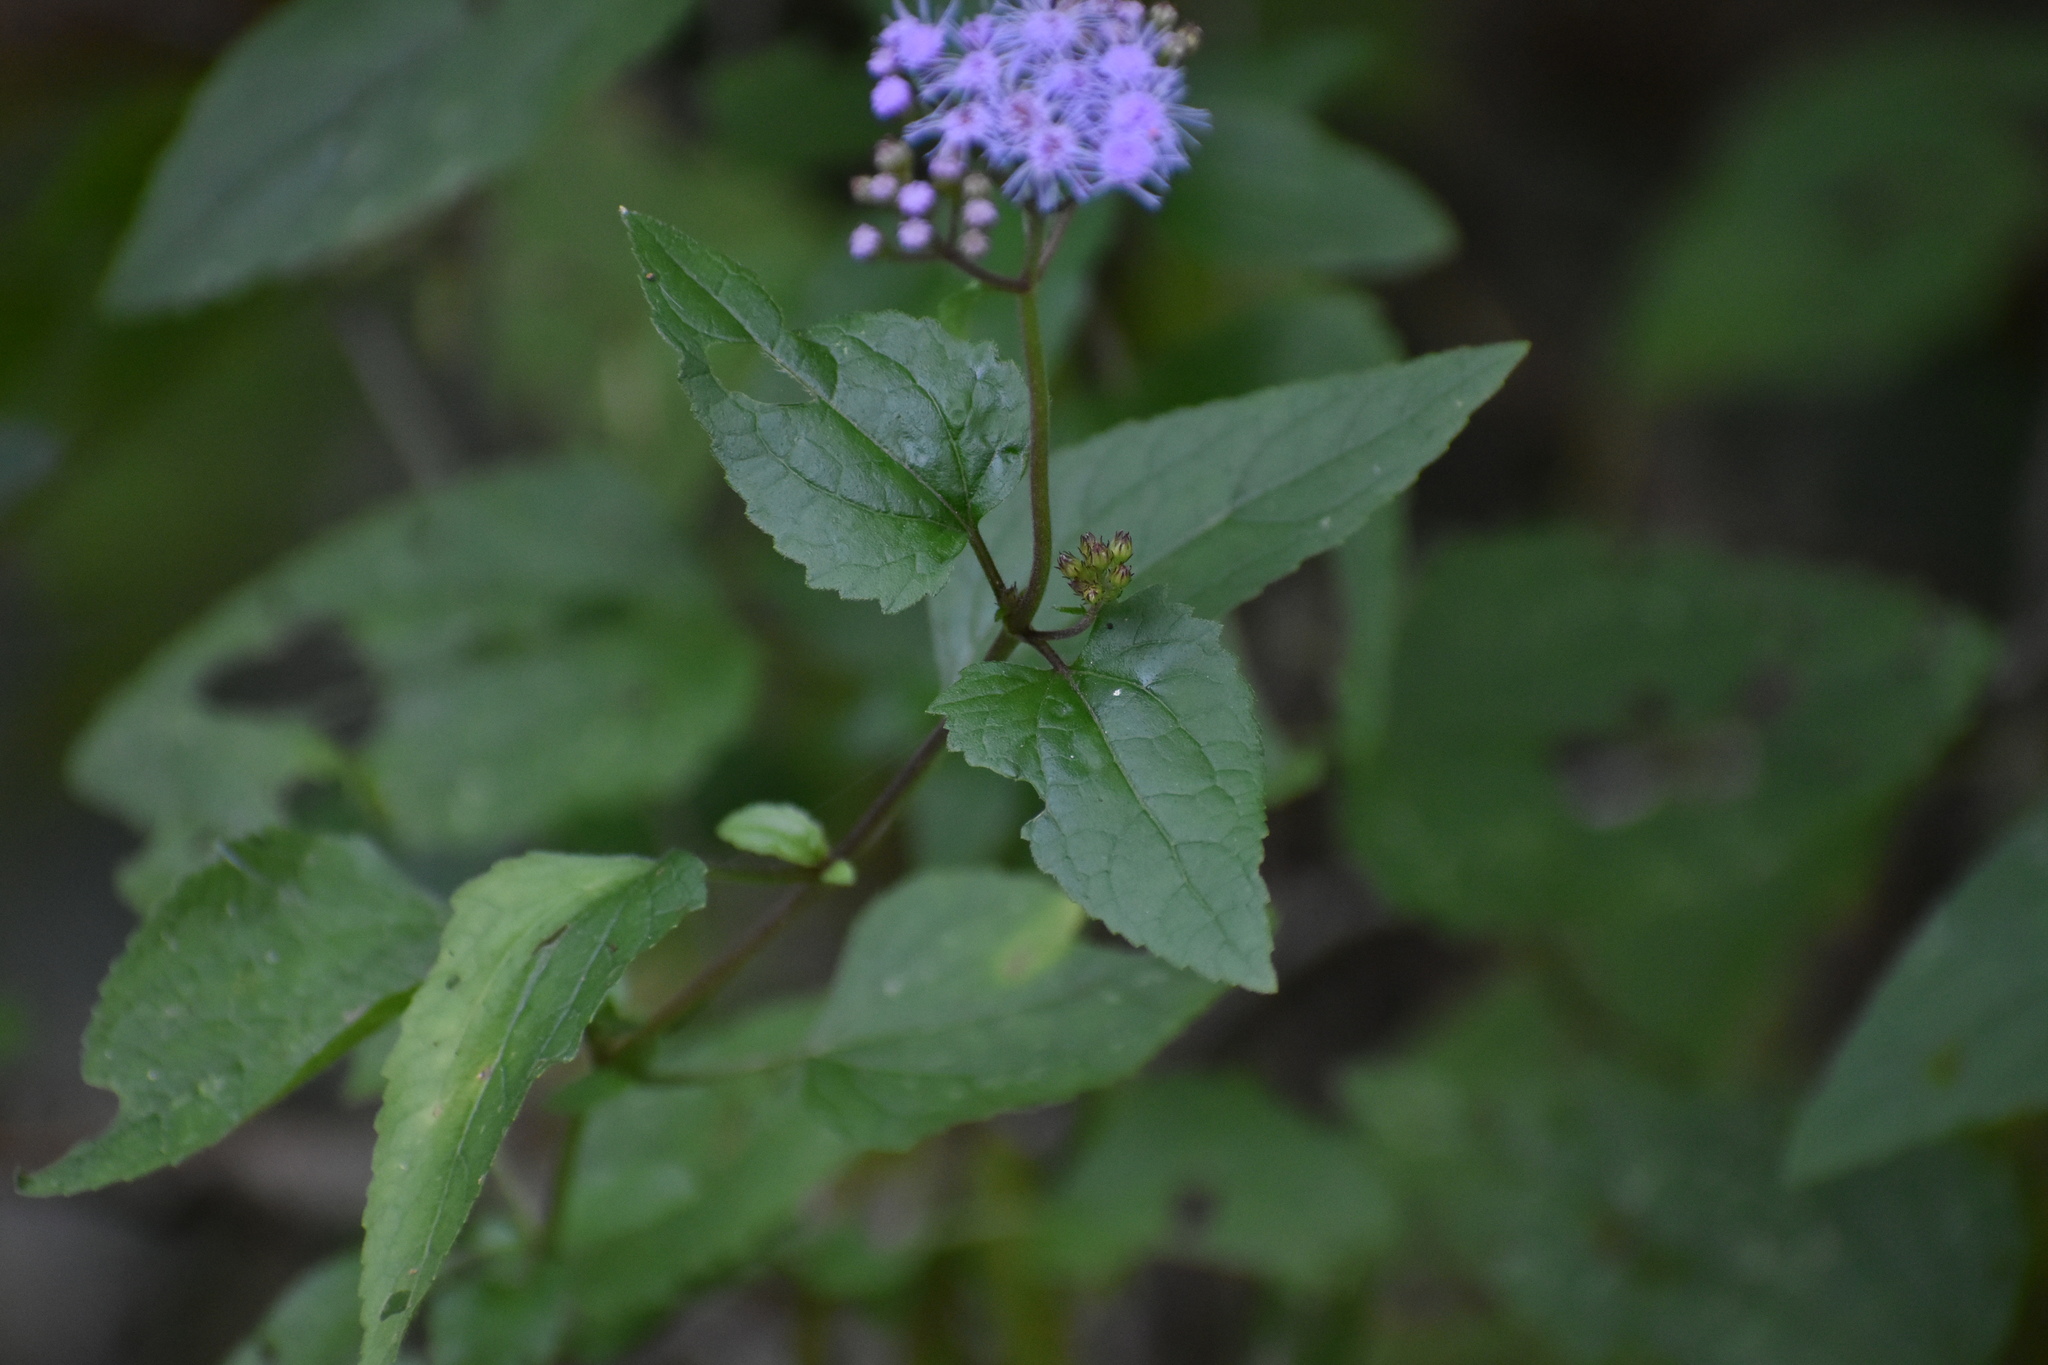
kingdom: Plantae
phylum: Tracheophyta
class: Magnoliopsida
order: Asterales
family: Asteraceae
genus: Conoclinium
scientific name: Conoclinium coelestinum
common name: Blue mistflower
